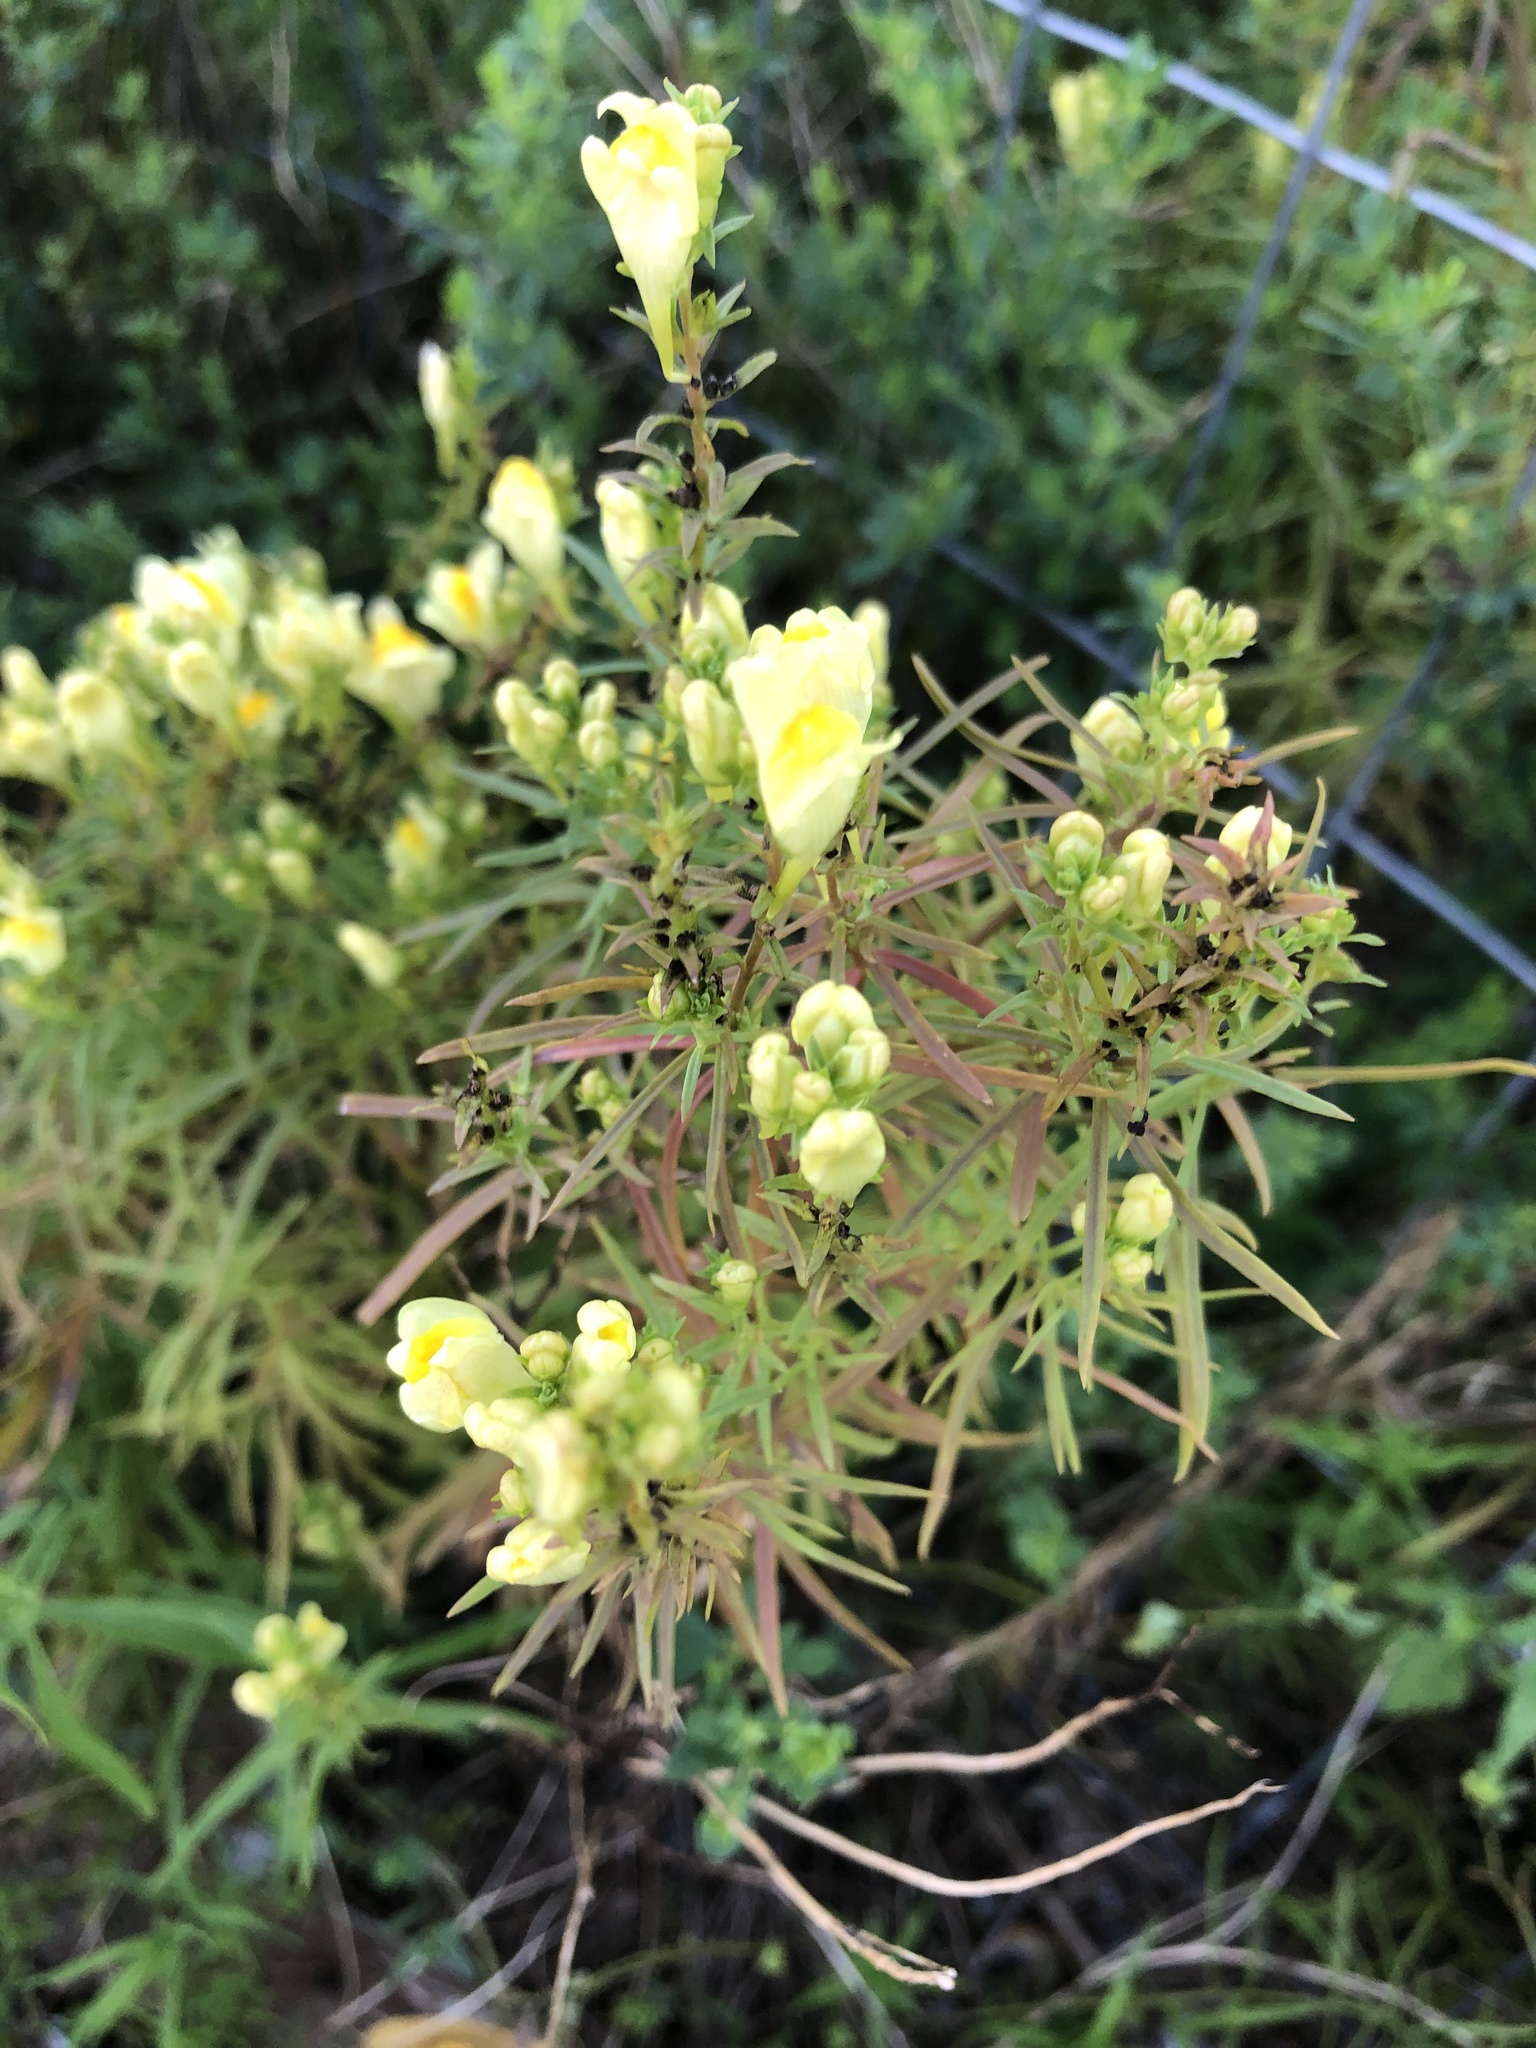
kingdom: Plantae
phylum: Tracheophyta
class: Magnoliopsida
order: Lamiales
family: Plantaginaceae
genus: Linaria
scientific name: Linaria vulgaris
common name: Butter and eggs
